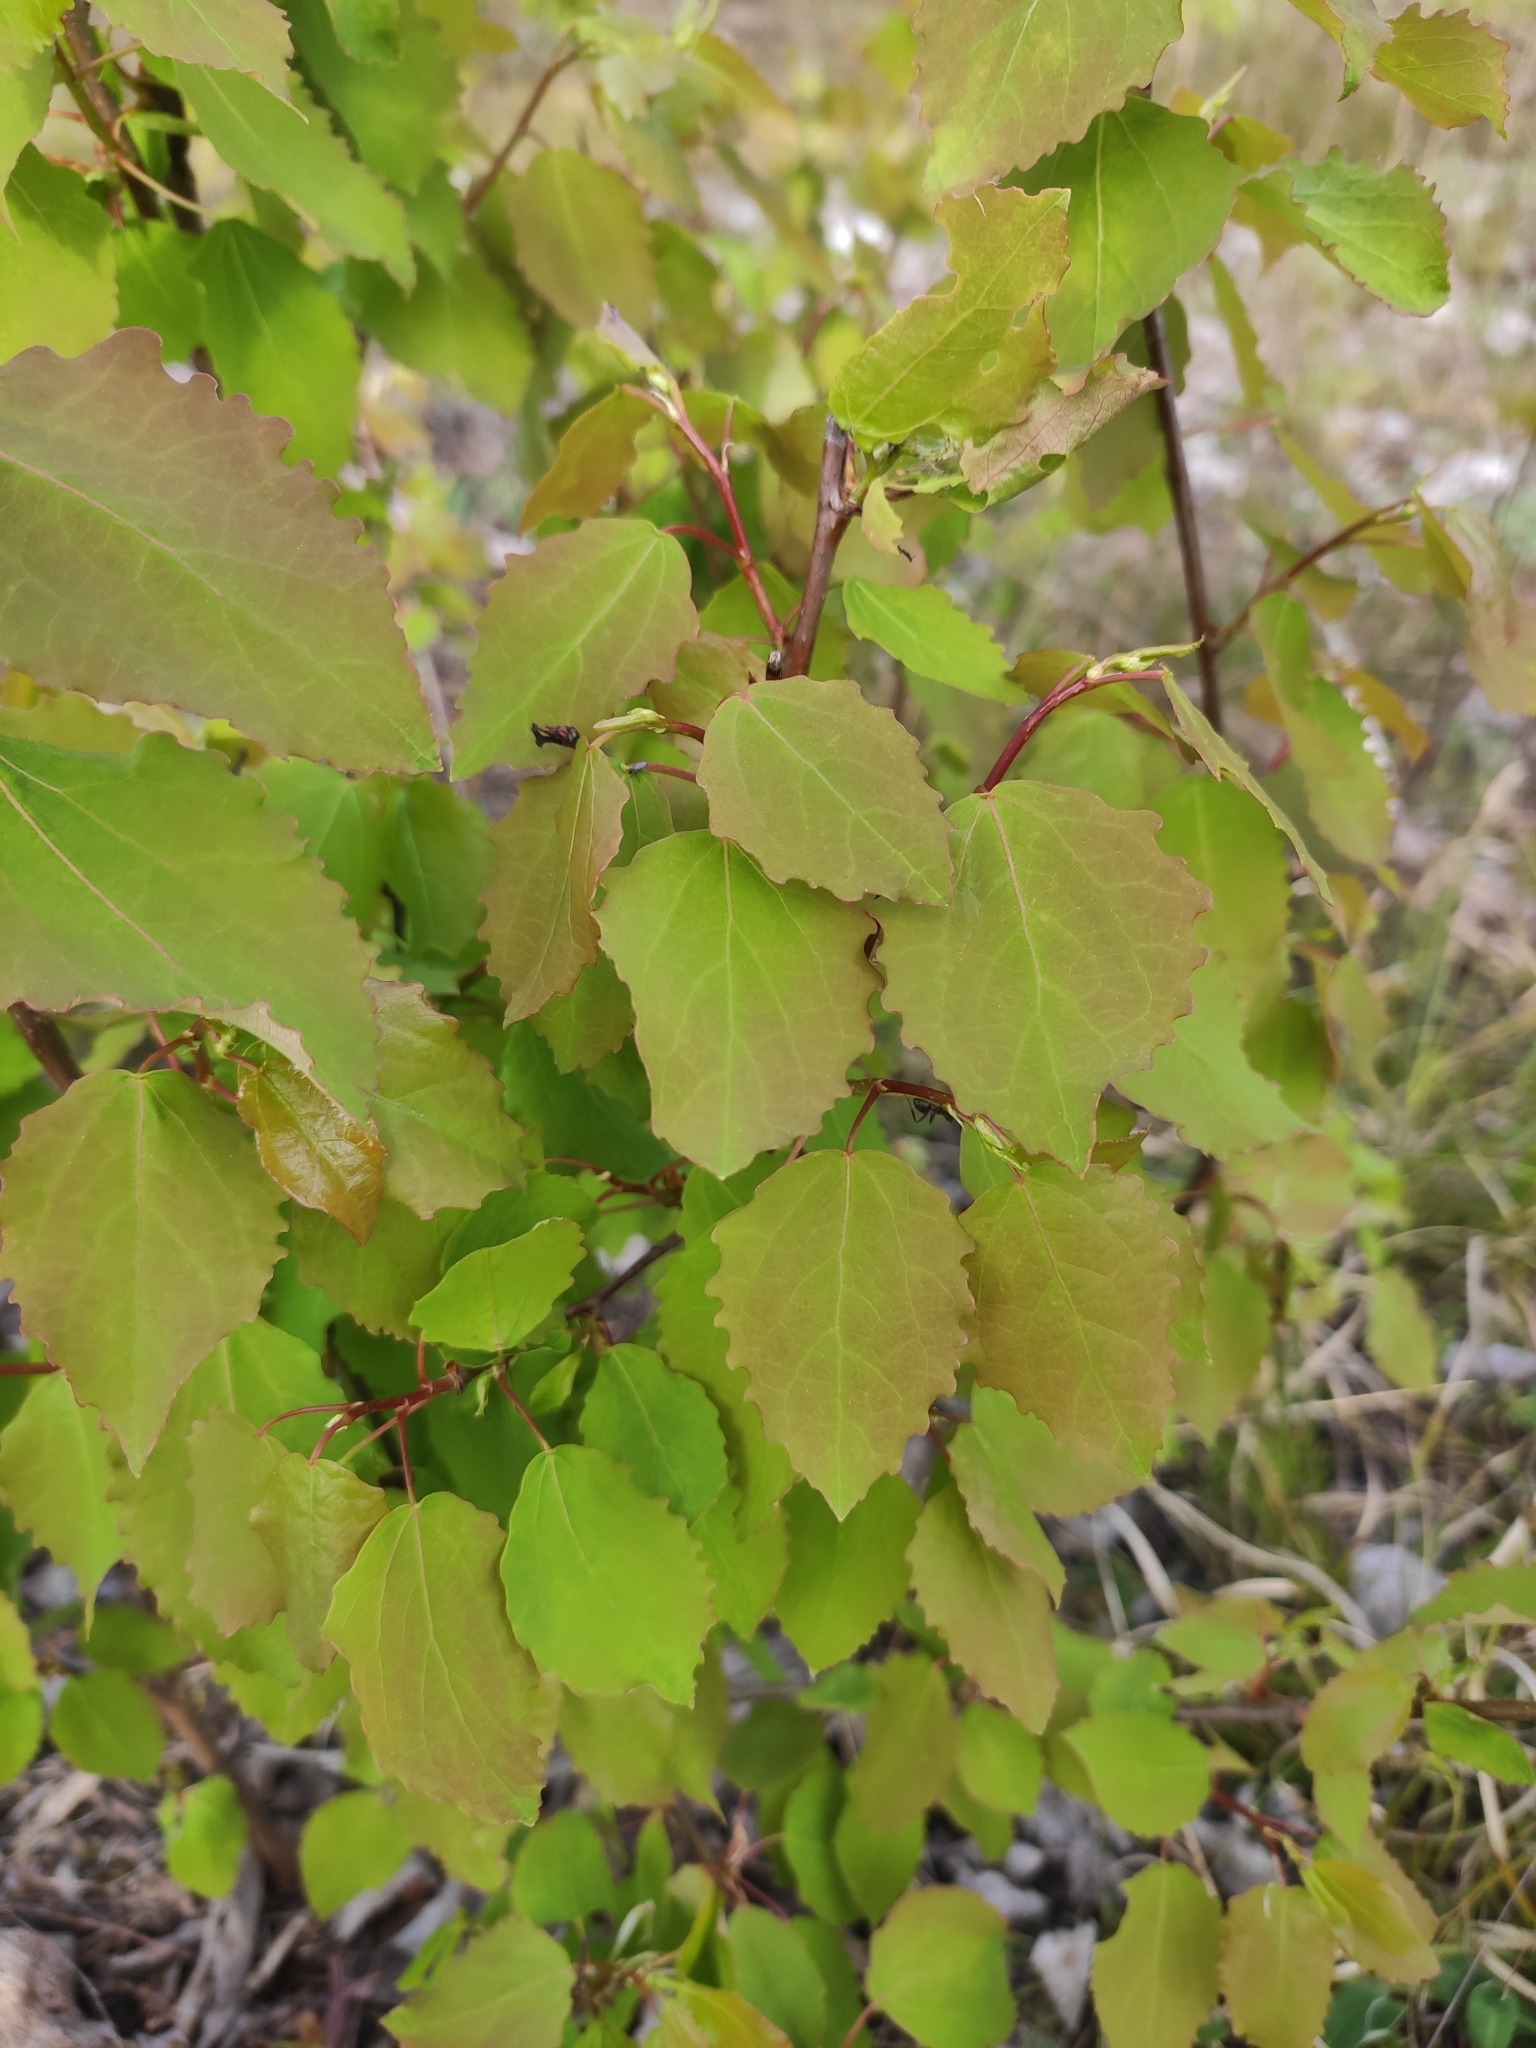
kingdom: Plantae
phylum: Tracheophyta
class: Magnoliopsida
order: Malpighiales
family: Salicaceae
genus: Populus
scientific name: Populus tremula
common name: European aspen
